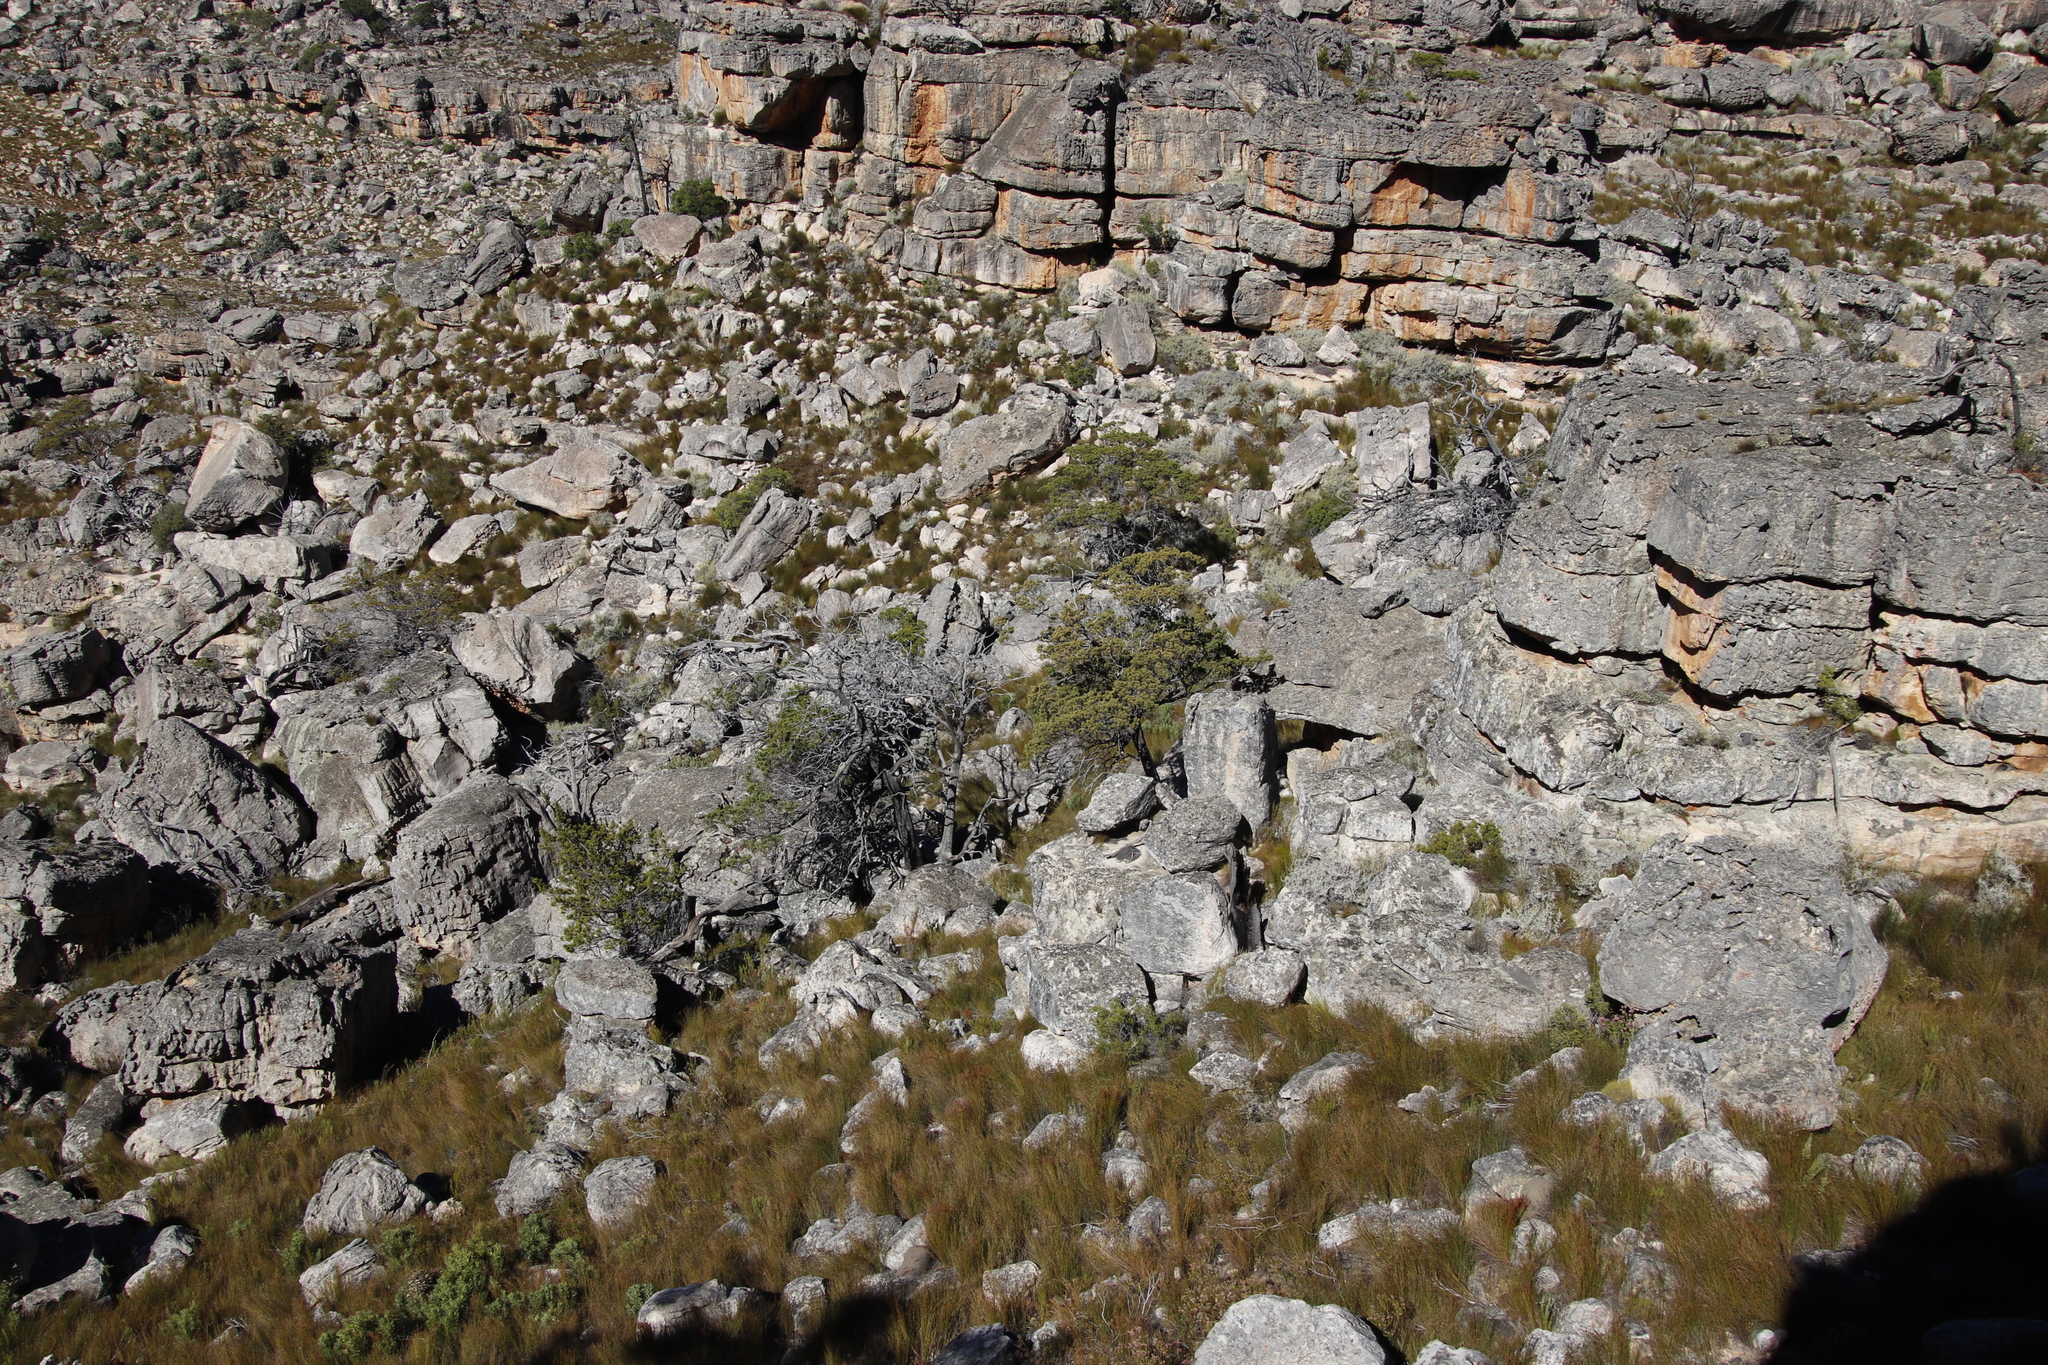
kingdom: Plantae
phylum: Tracheophyta
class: Pinopsida
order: Pinales
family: Cupressaceae
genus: Widdringtonia
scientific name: Widdringtonia nodiflora
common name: Cape cypress
